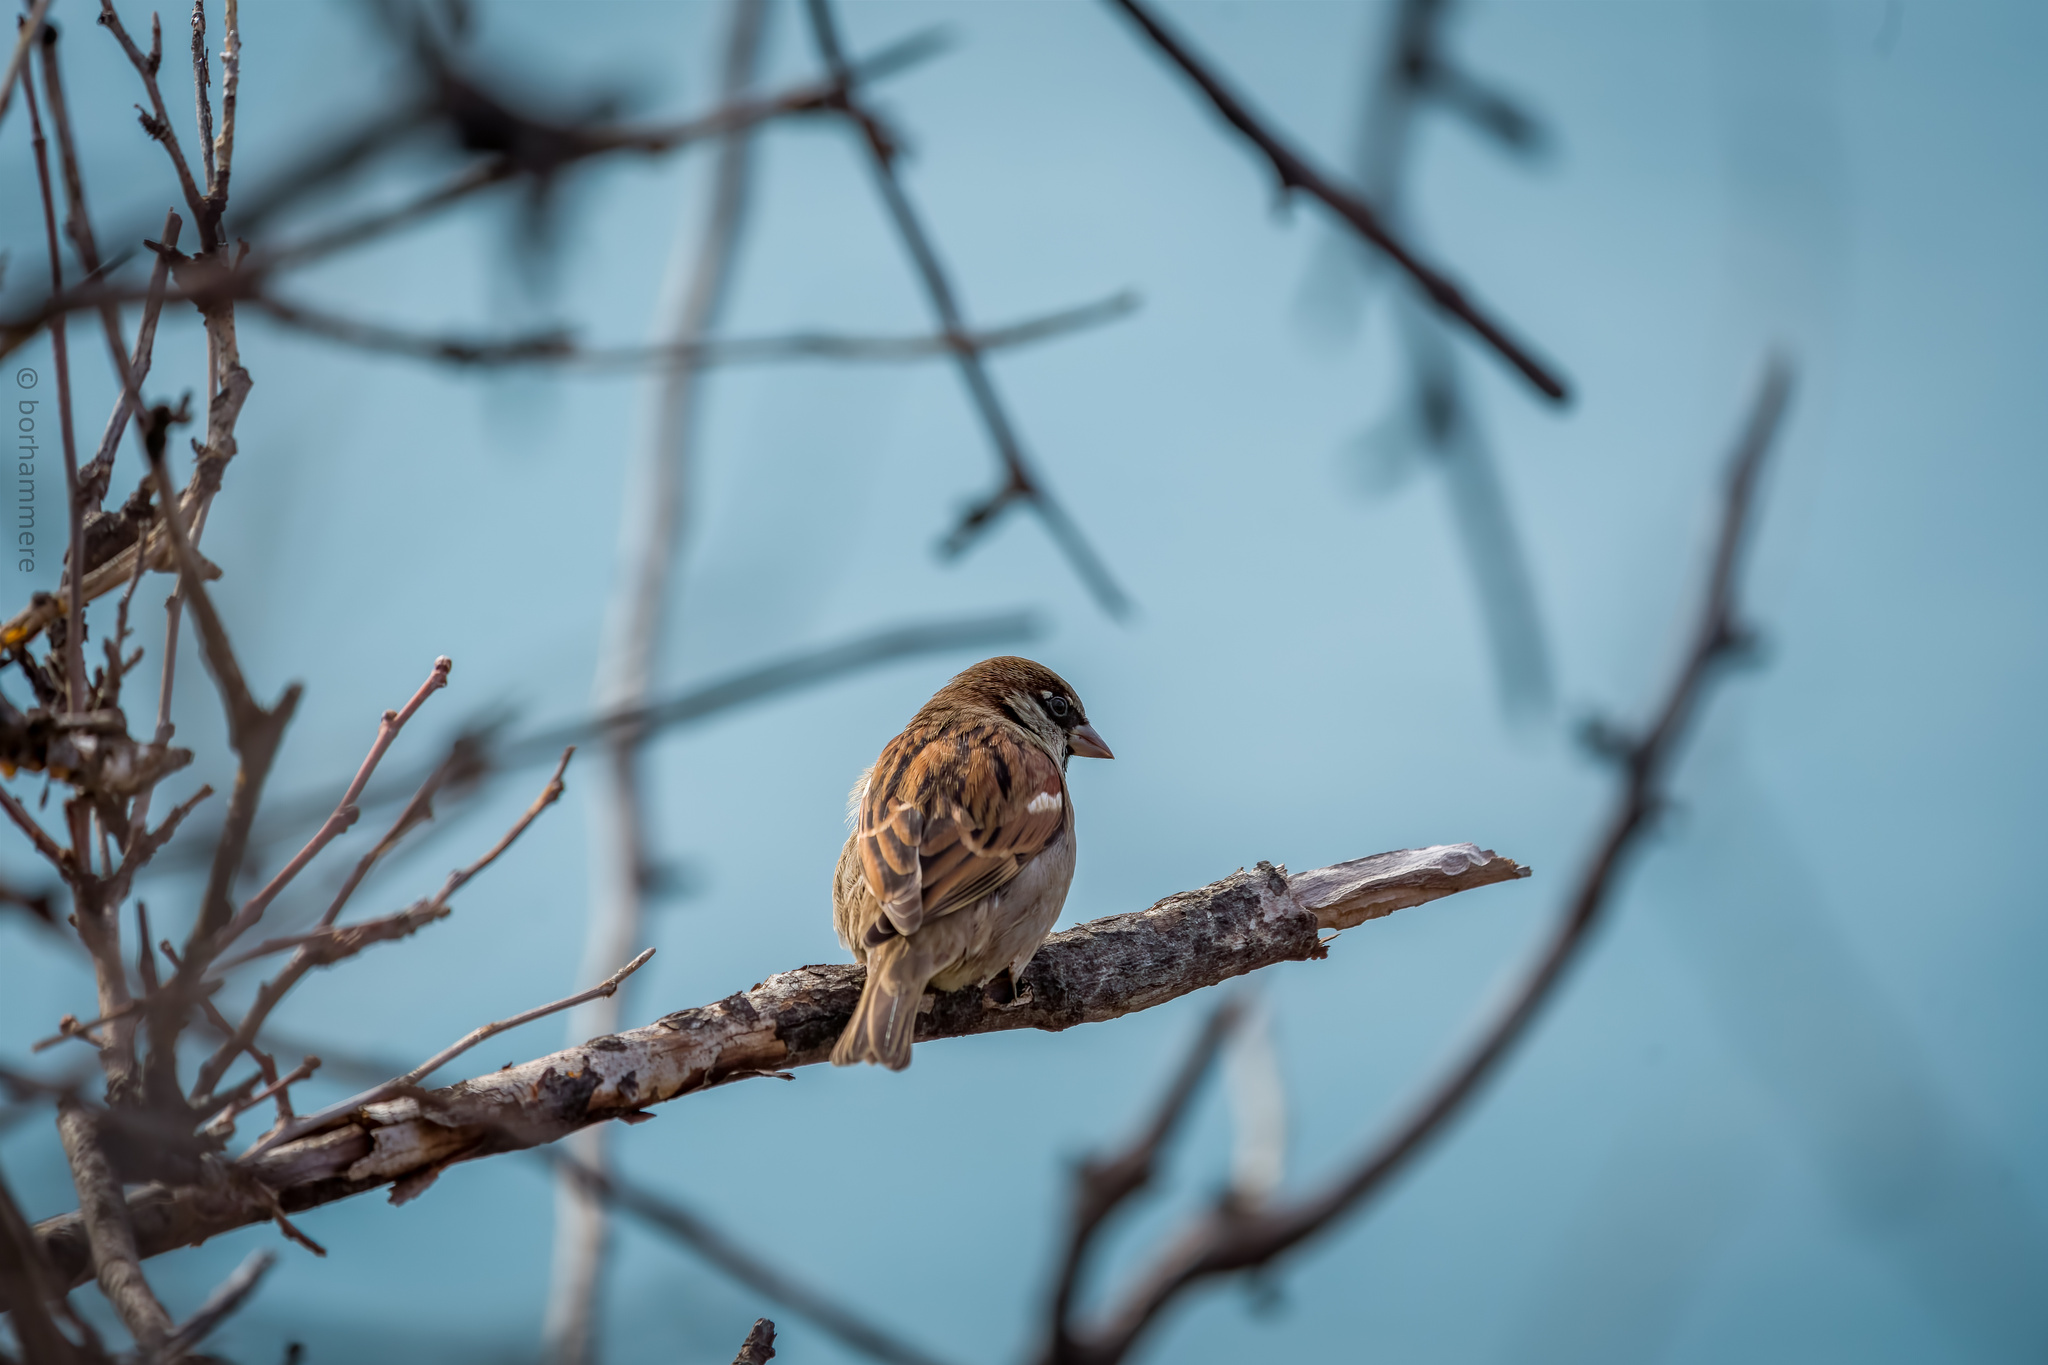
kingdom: Animalia
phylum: Chordata
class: Aves
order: Passeriformes
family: Passeridae
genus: Passer
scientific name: Passer domesticus
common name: House sparrow
